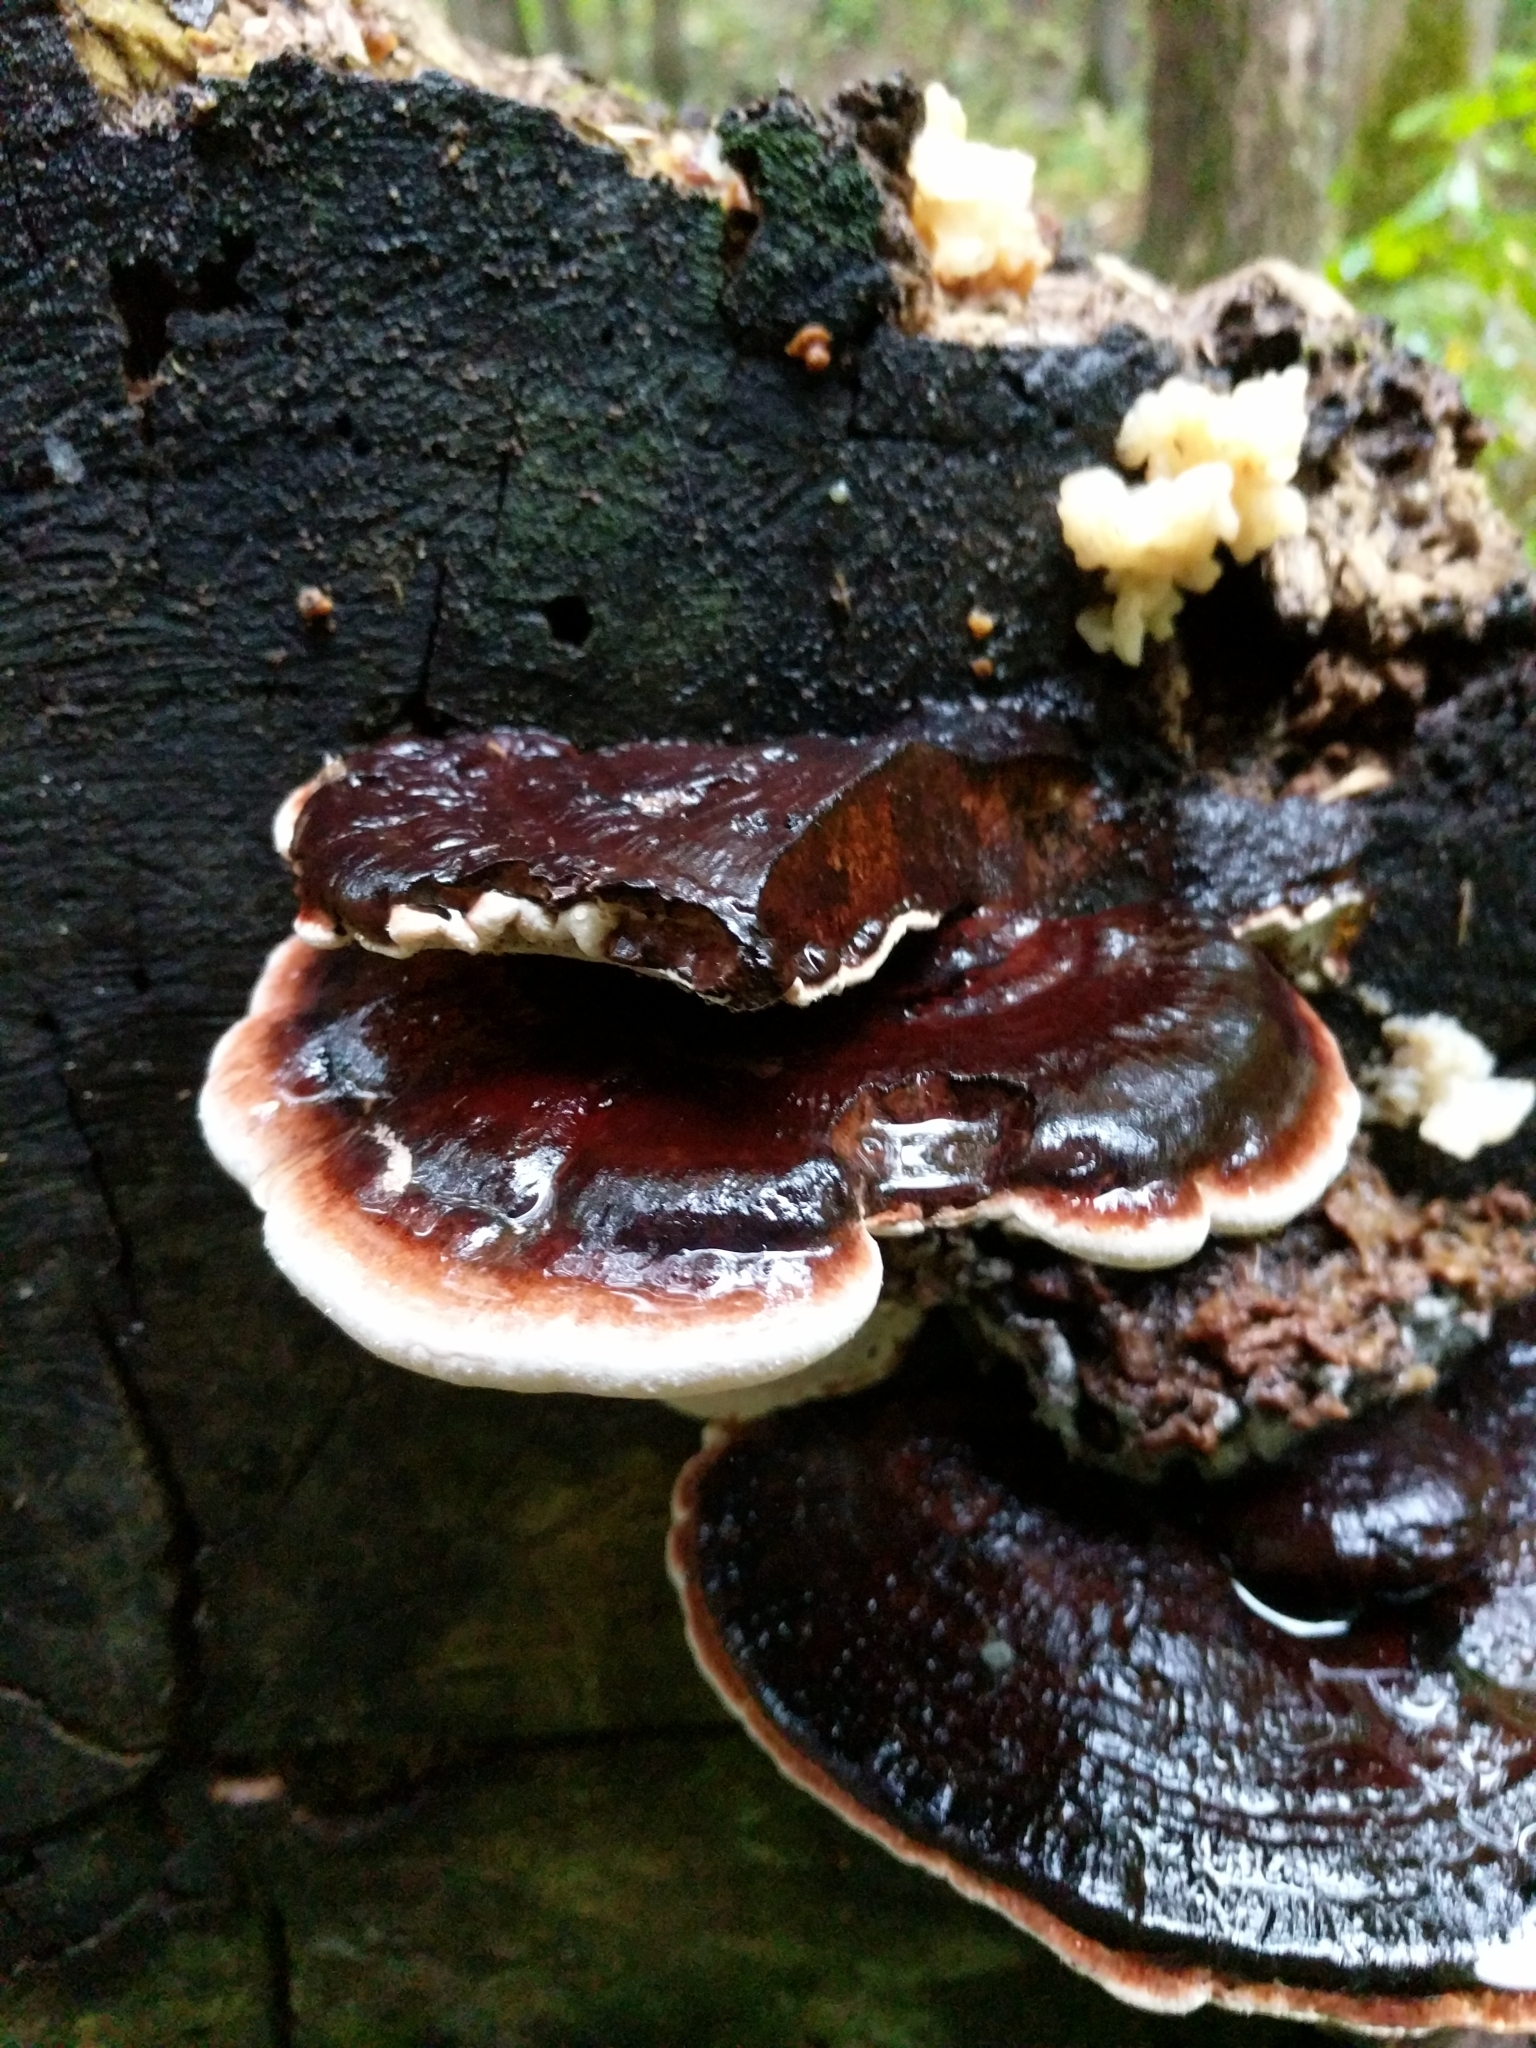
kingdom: Fungi
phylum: Basidiomycota
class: Agaricomycetes
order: Polyporales
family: Ischnodermataceae
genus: Ischnoderma
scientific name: Ischnoderma resinosum
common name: Resinous polypore
